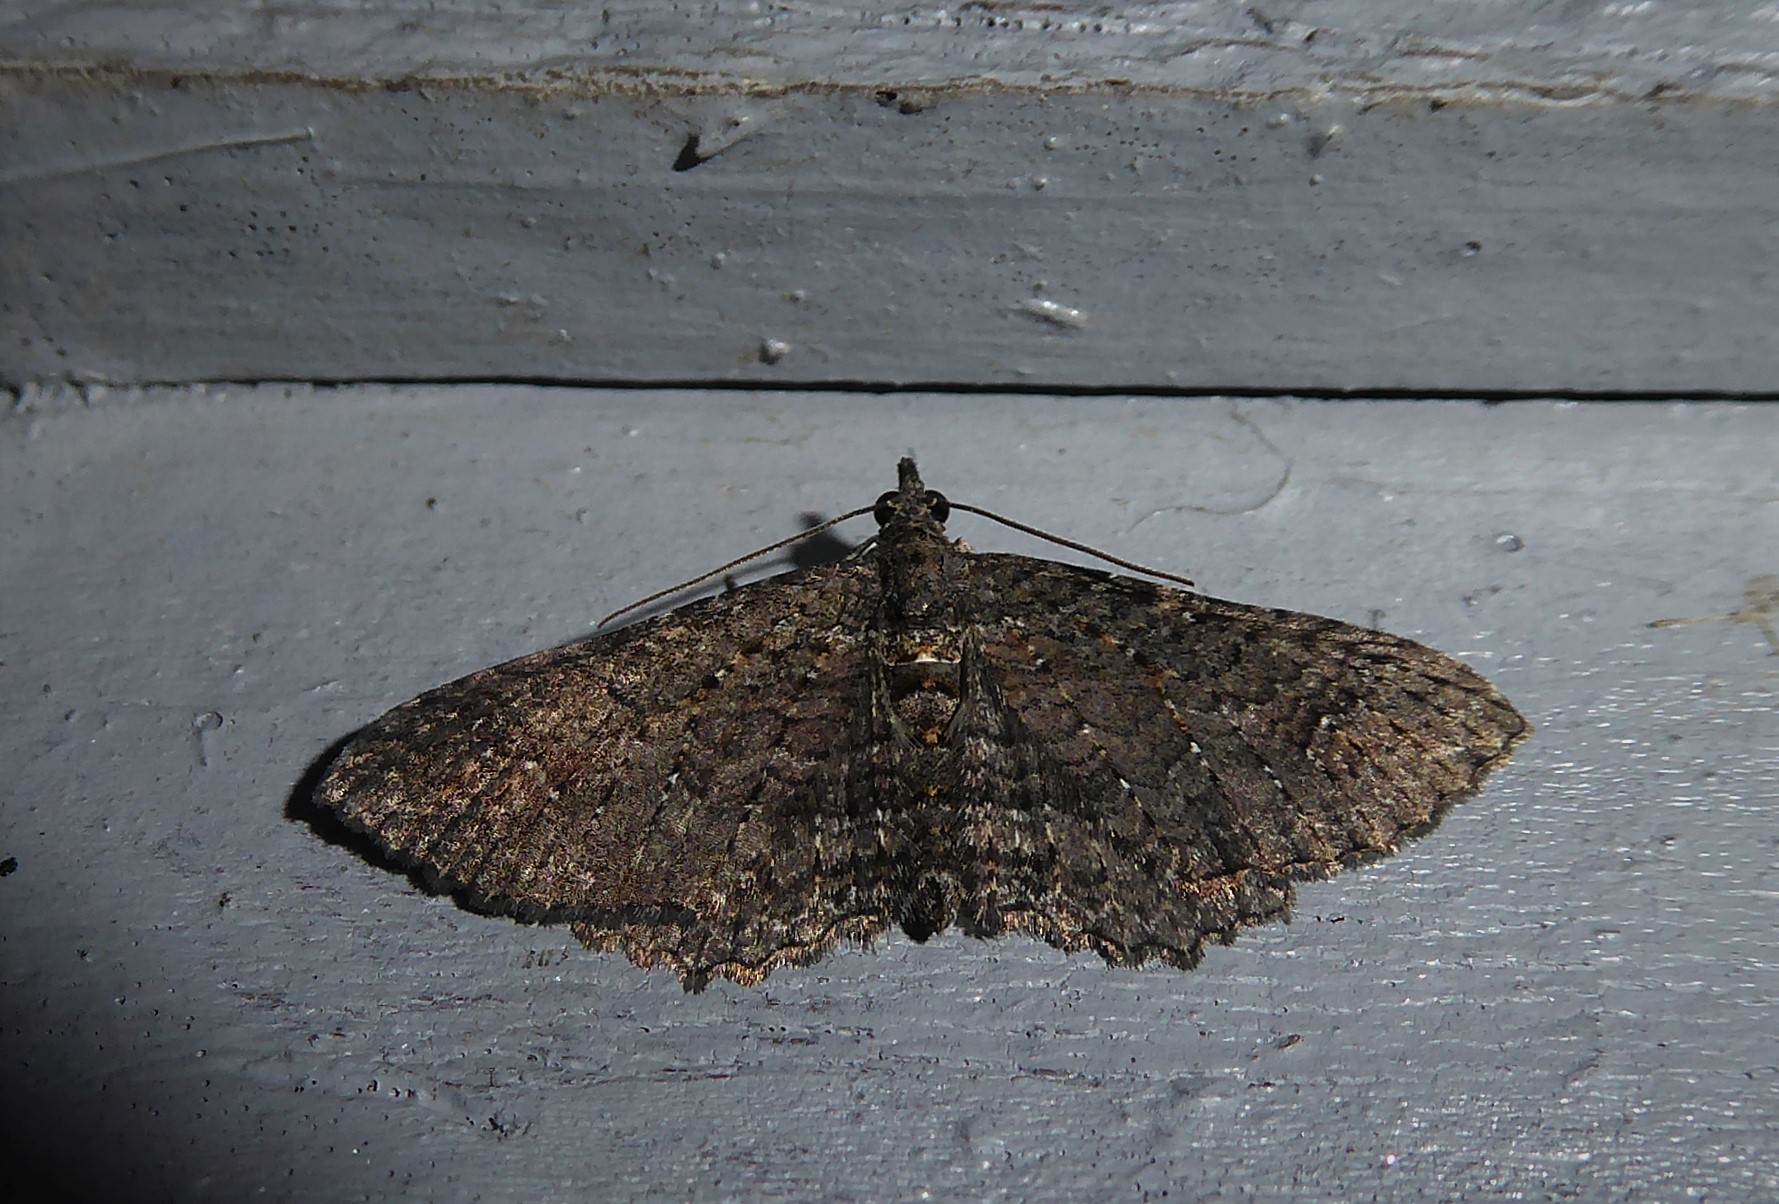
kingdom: Animalia
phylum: Arthropoda
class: Insecta
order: Lepidoptera
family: Geometridae
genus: Horisme
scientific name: Horisme suppressaria
